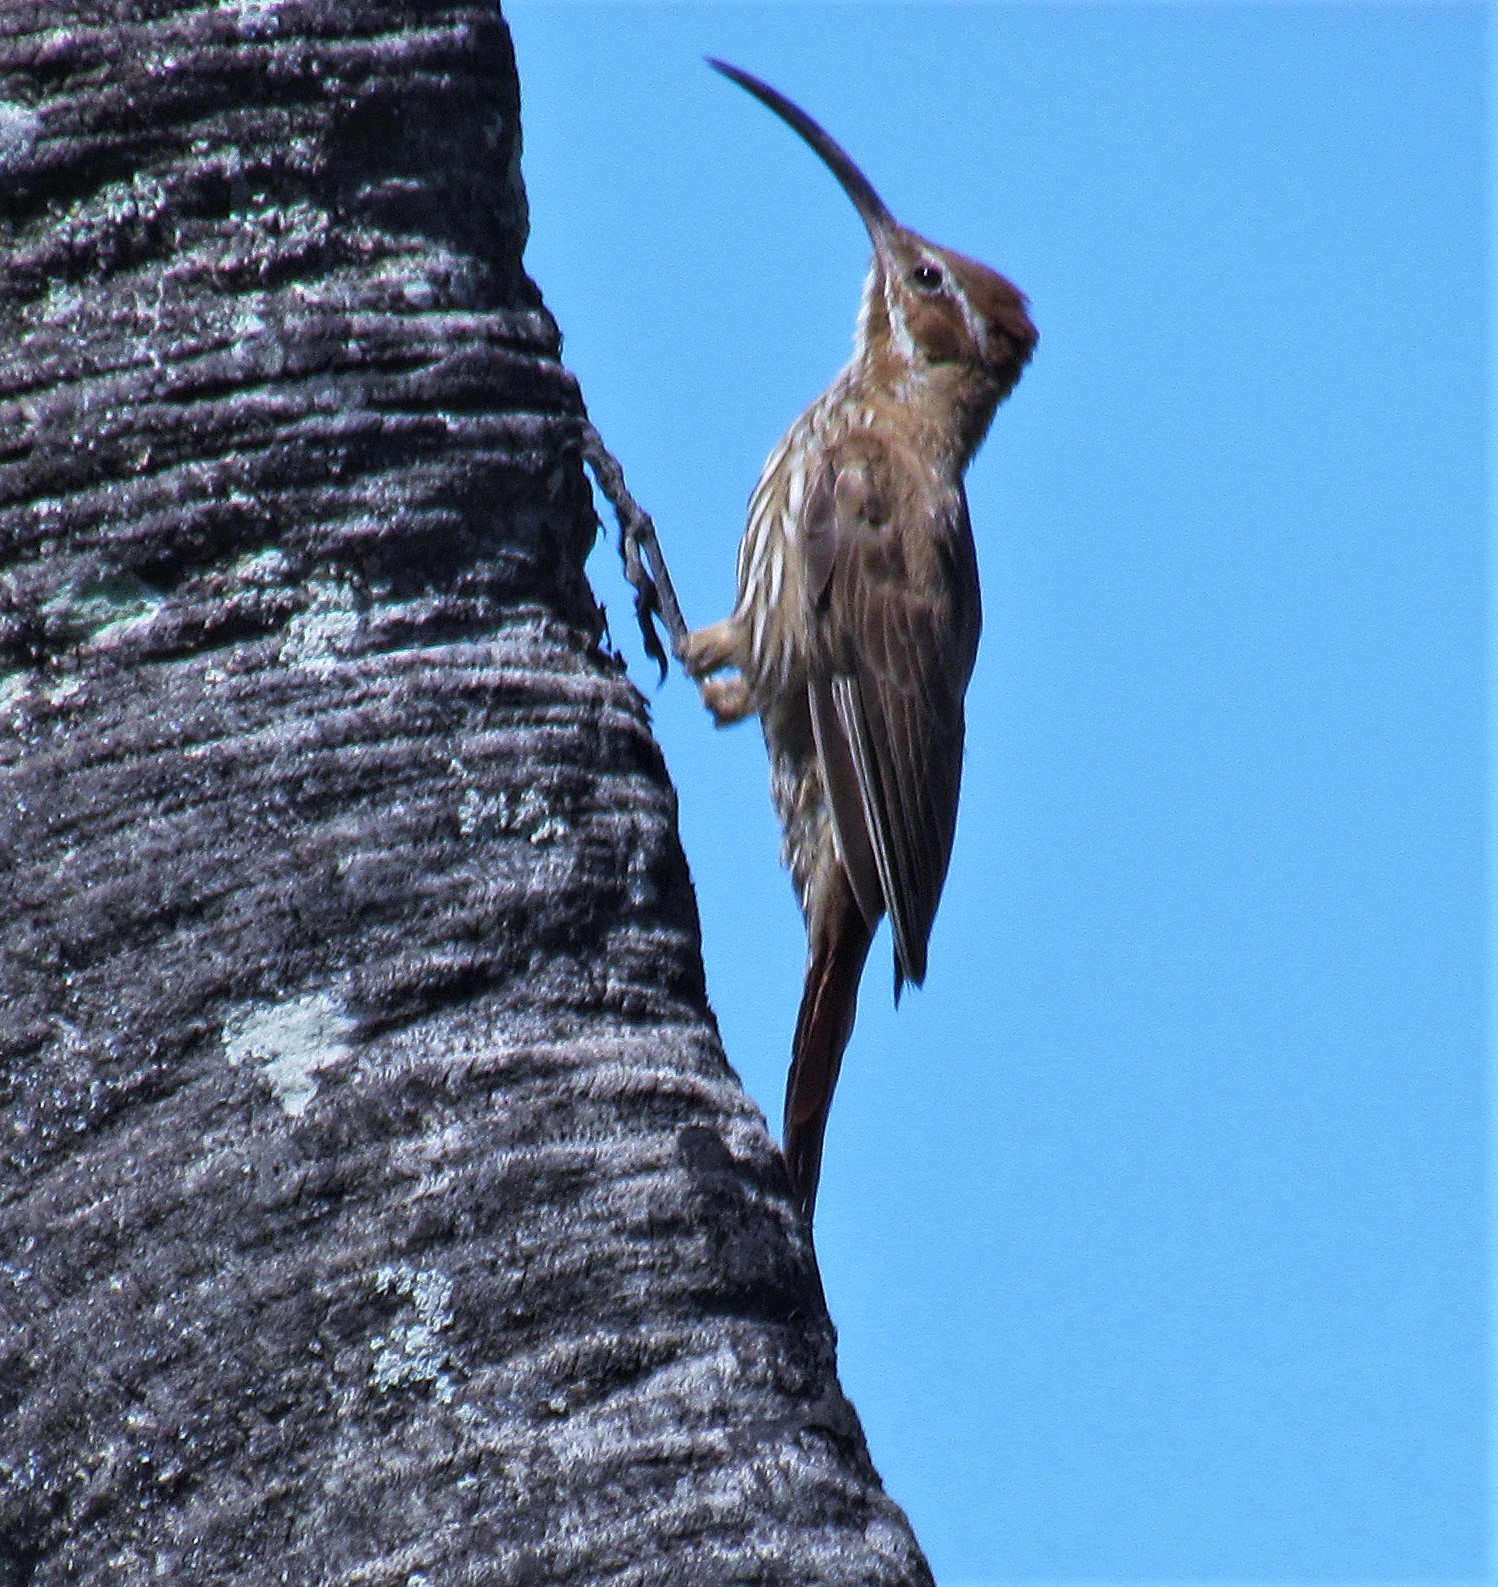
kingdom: Animalia
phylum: Chordata
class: Aves
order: Passeriformes
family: Furnariidae
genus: Drymornis
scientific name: Drymornis bridgesii
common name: Scimitar-billed woodcreeper
